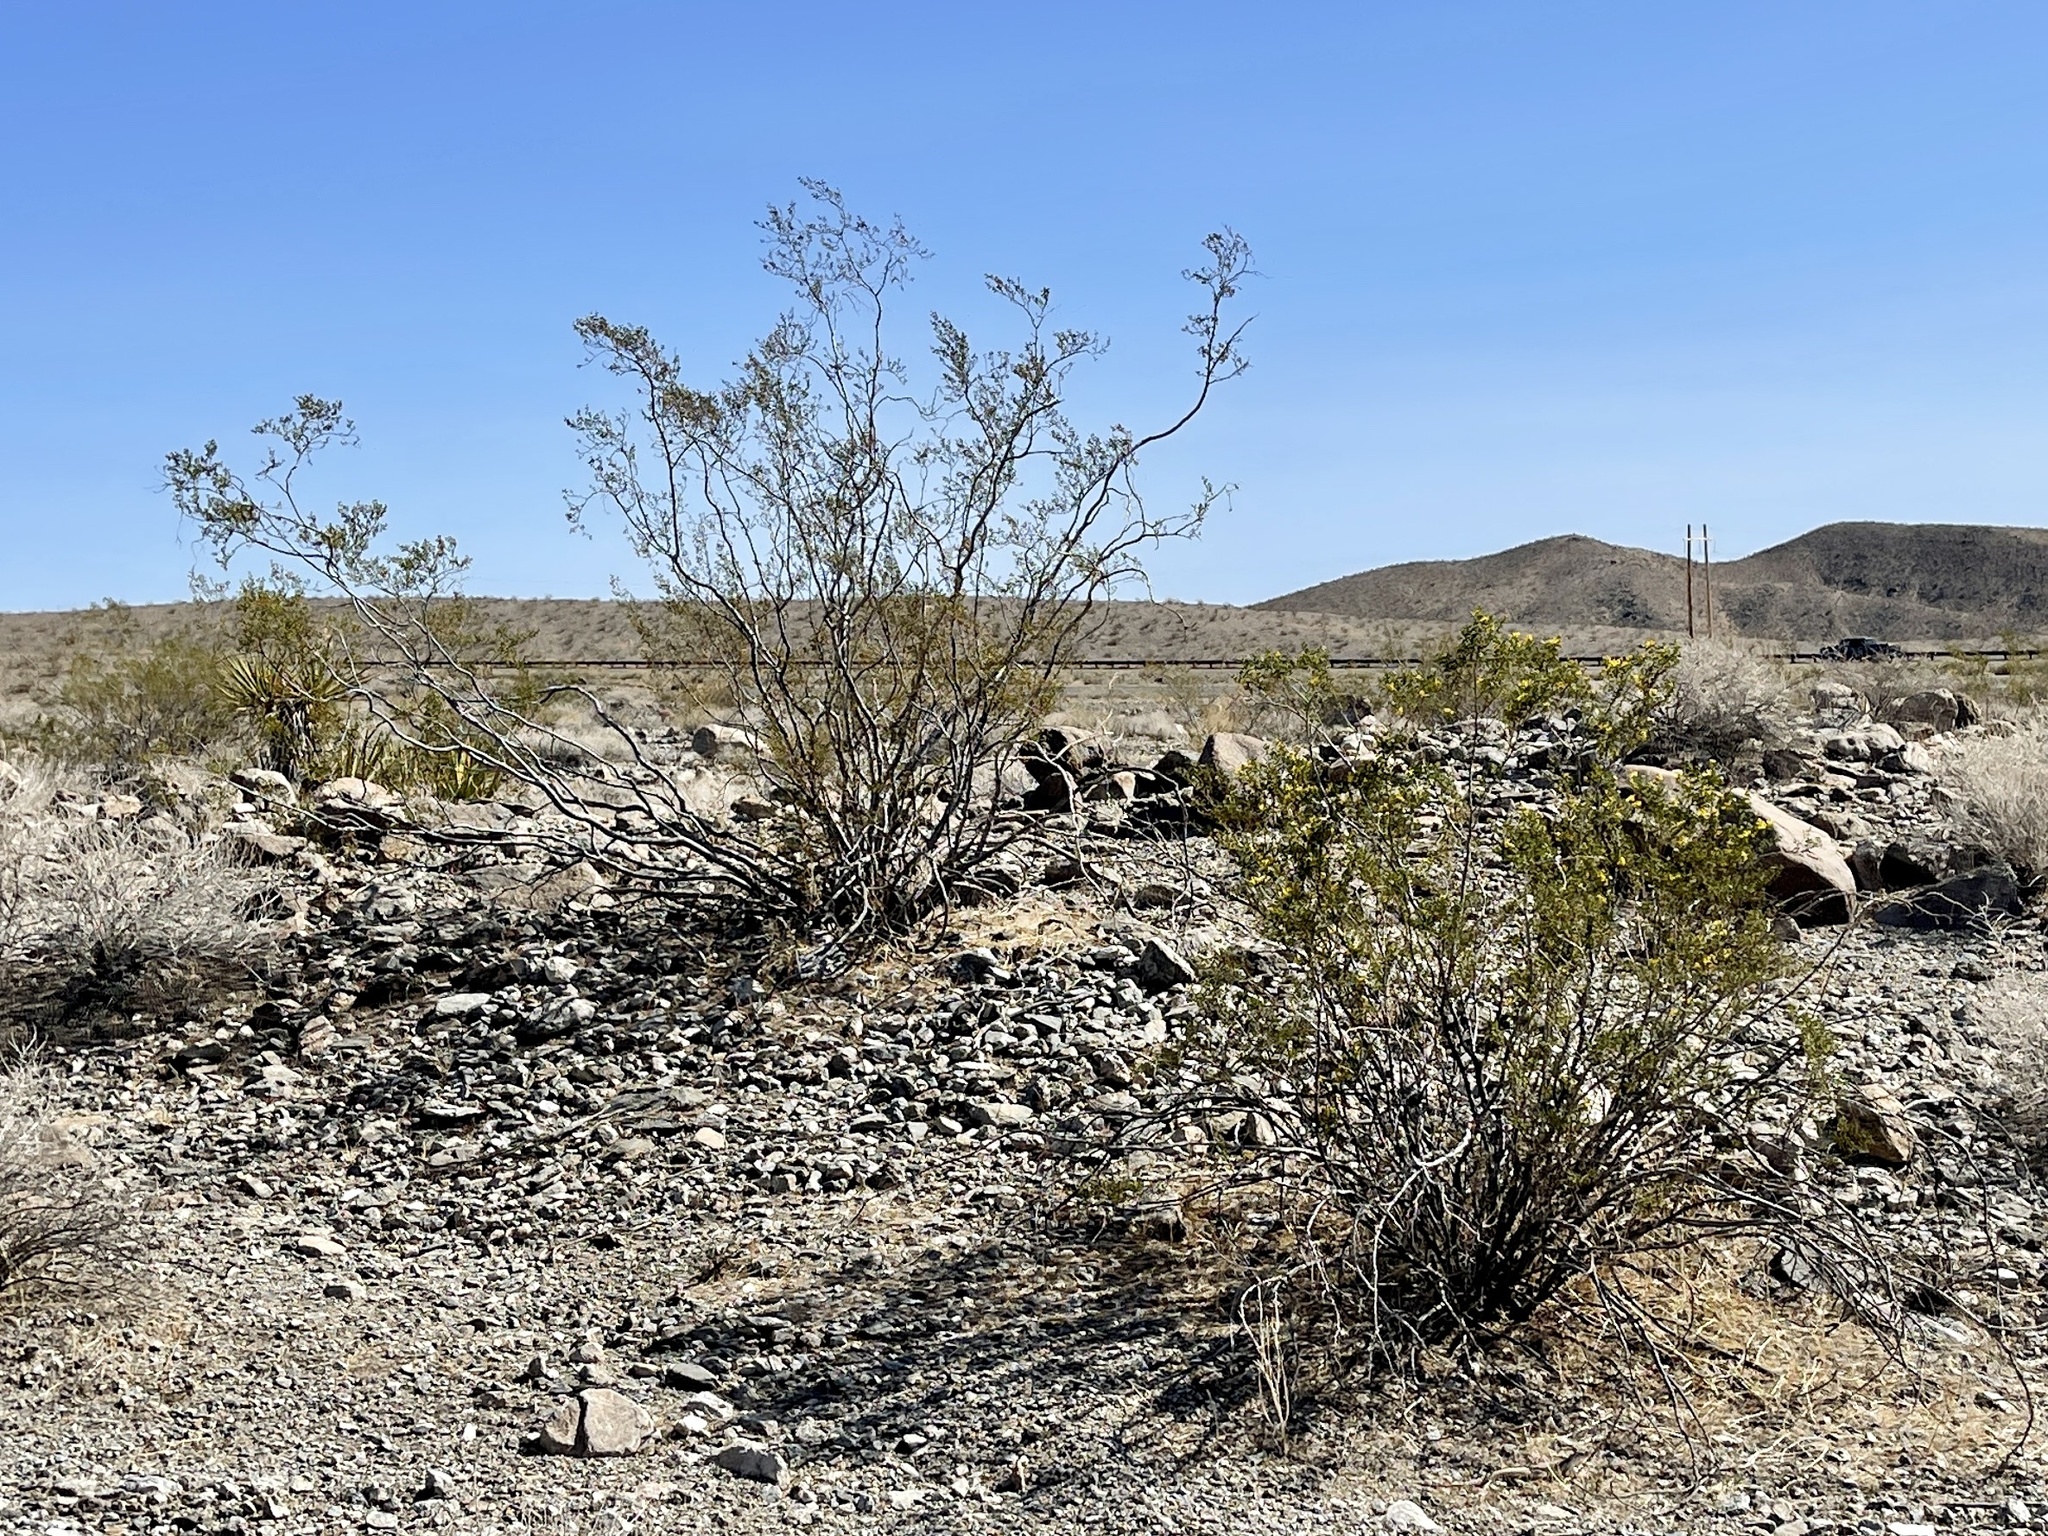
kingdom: Plantae
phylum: Tracheophyta
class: Magnoliopsida
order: Zygophyllales
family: Zygophyllaceae
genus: Larrea
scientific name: Larrea tridentata
